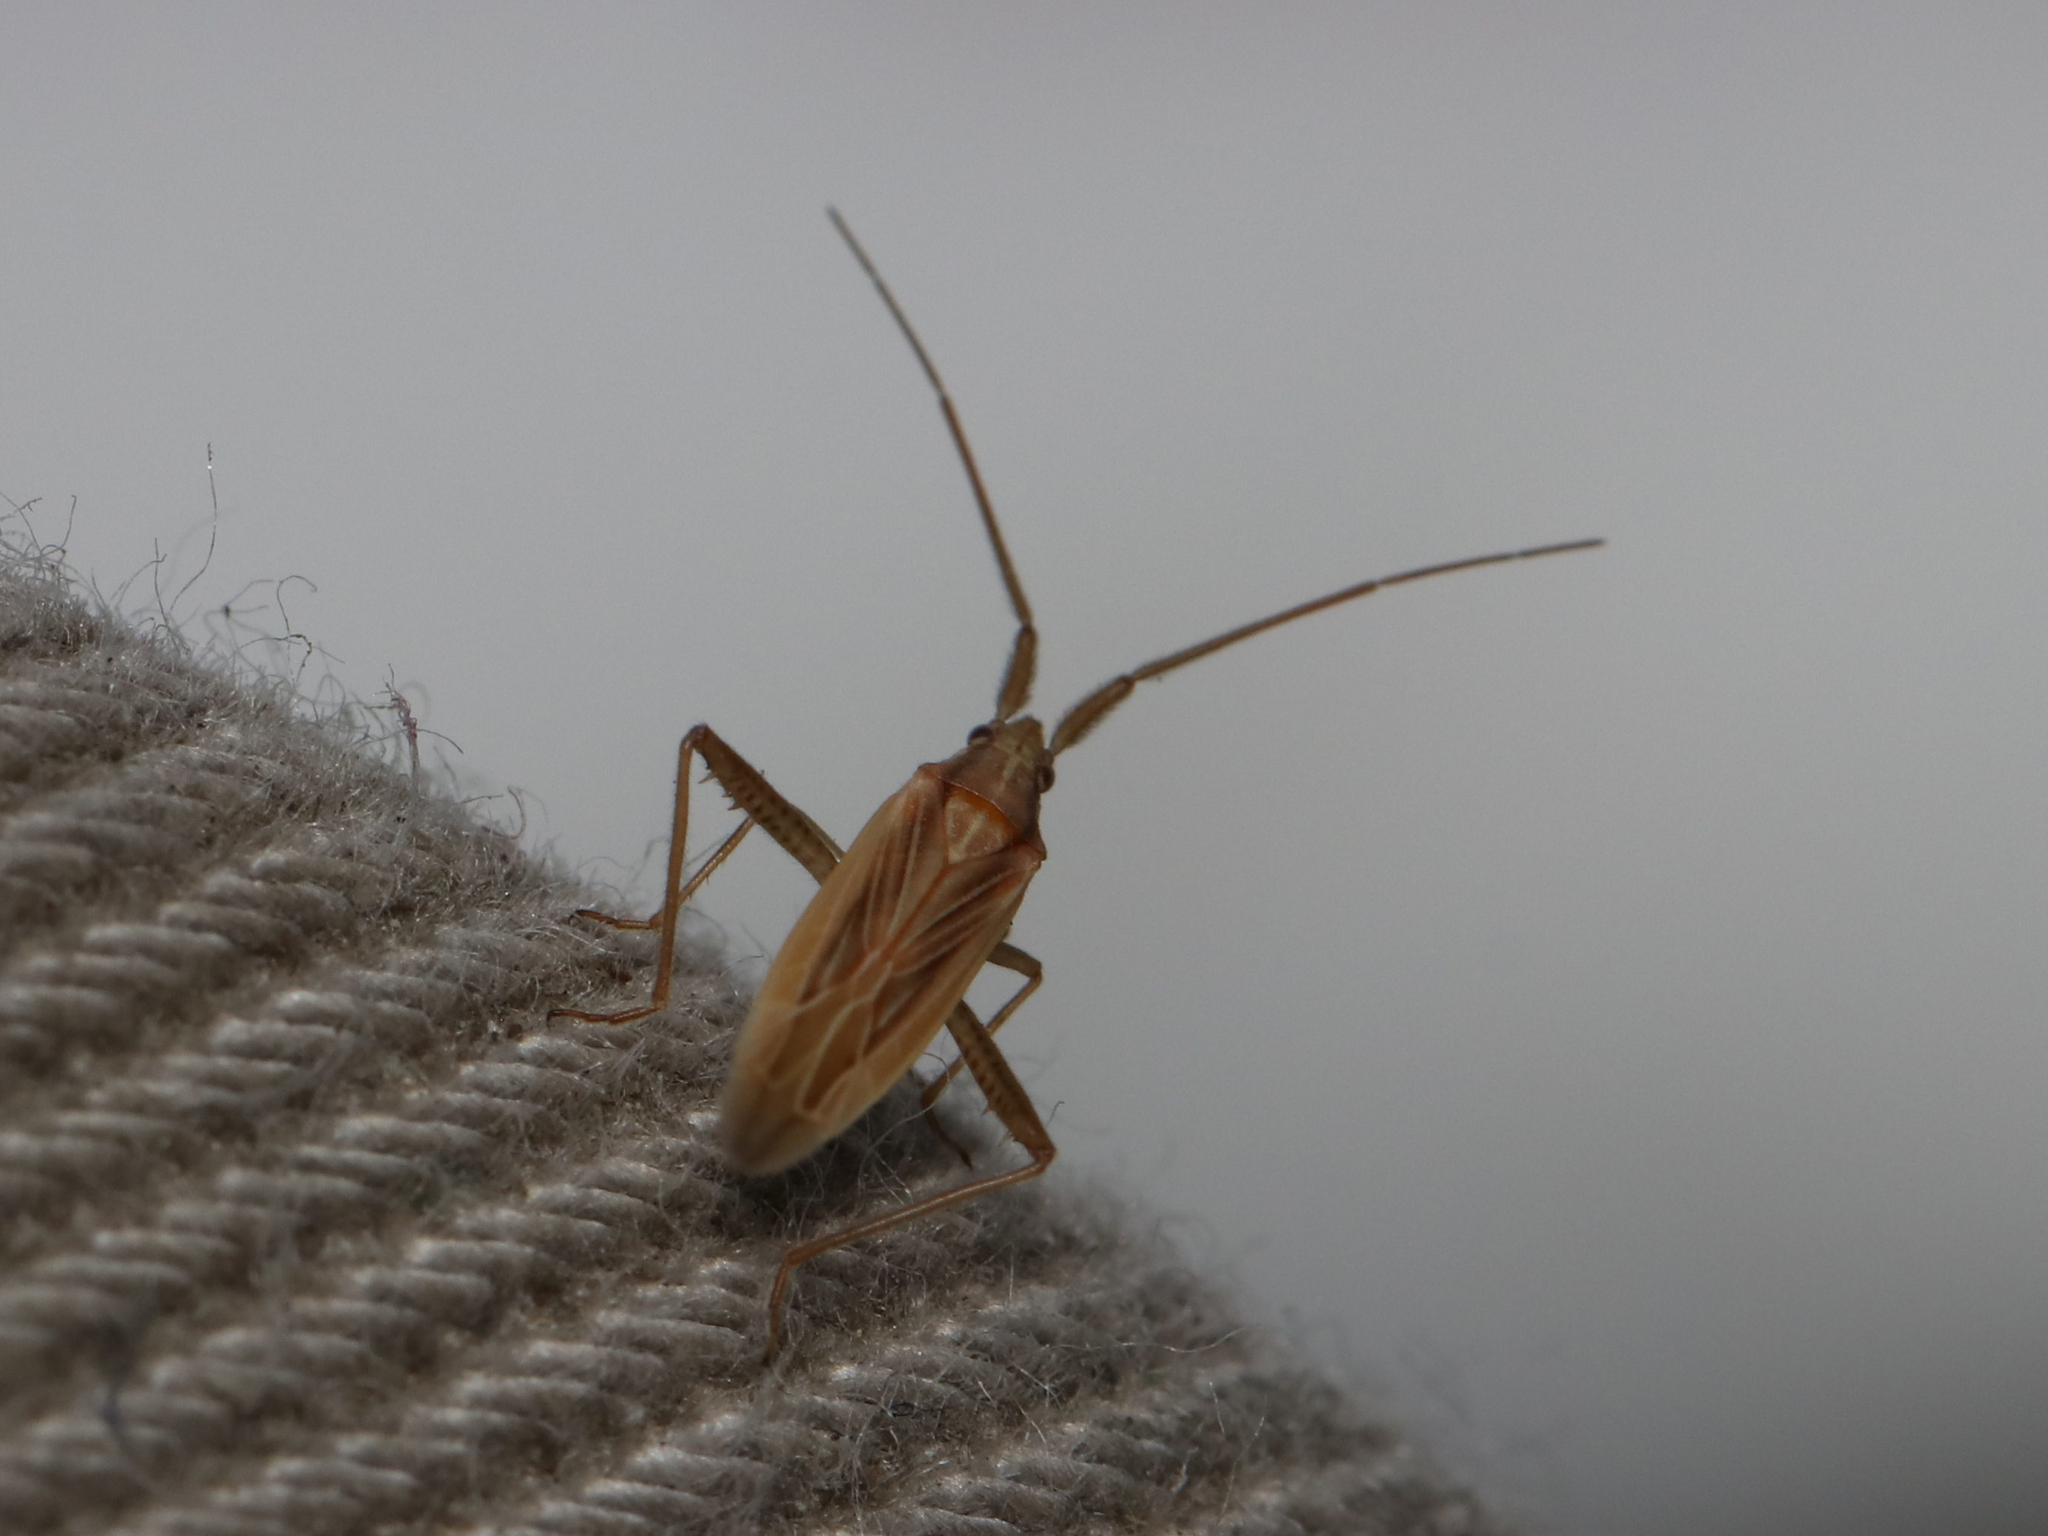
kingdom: Animalia
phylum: Arthropoda
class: Insecta
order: Hemiptera
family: Miridae
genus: Stenodema
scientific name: Stenodema trispinosa
